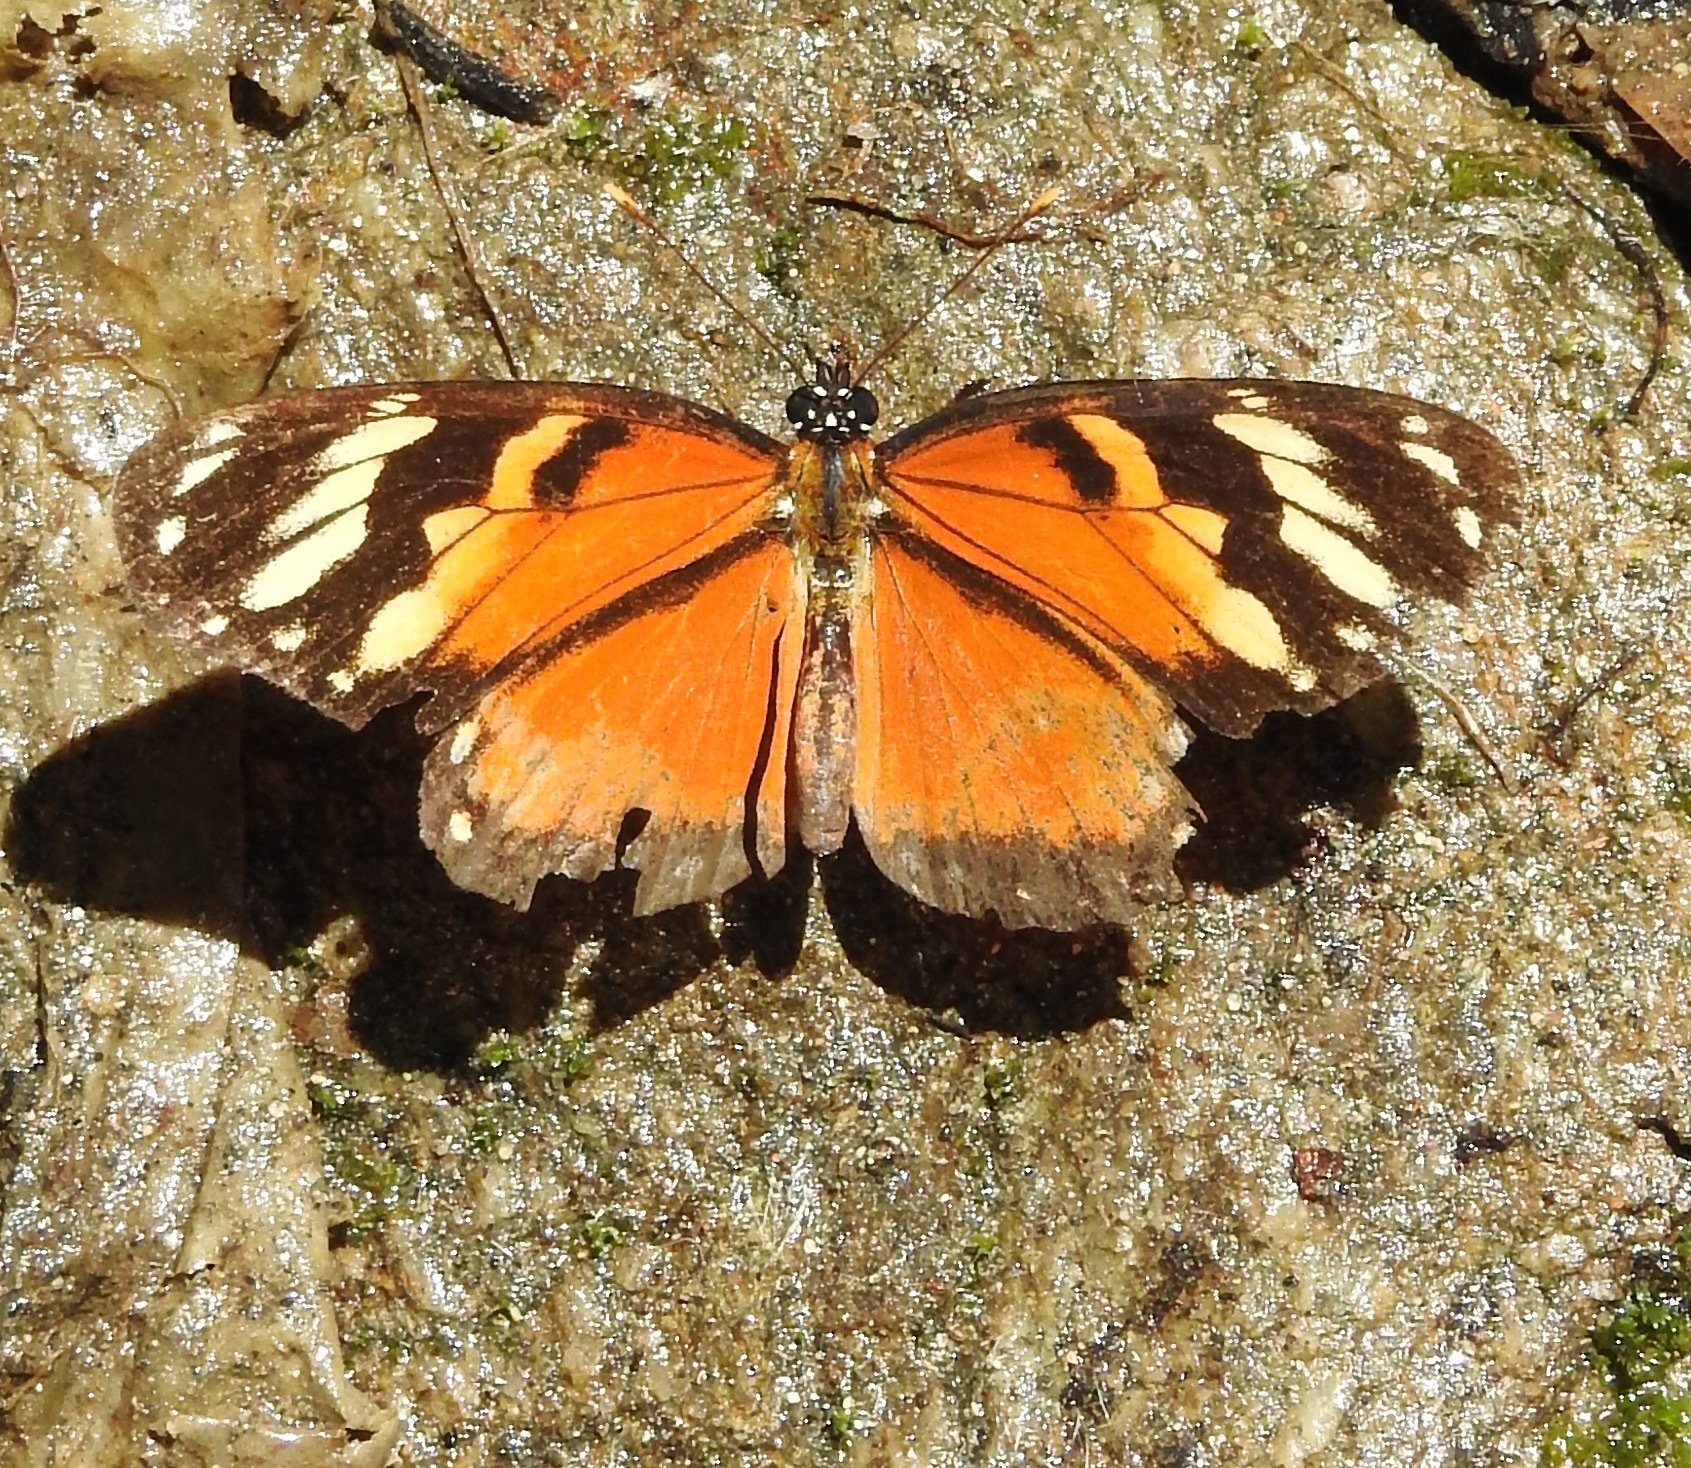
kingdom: Animalia
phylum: Arthropoda
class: Insecta
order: Lepidoptera
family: Nymphalidae
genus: Eresia
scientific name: Eresia mimas
